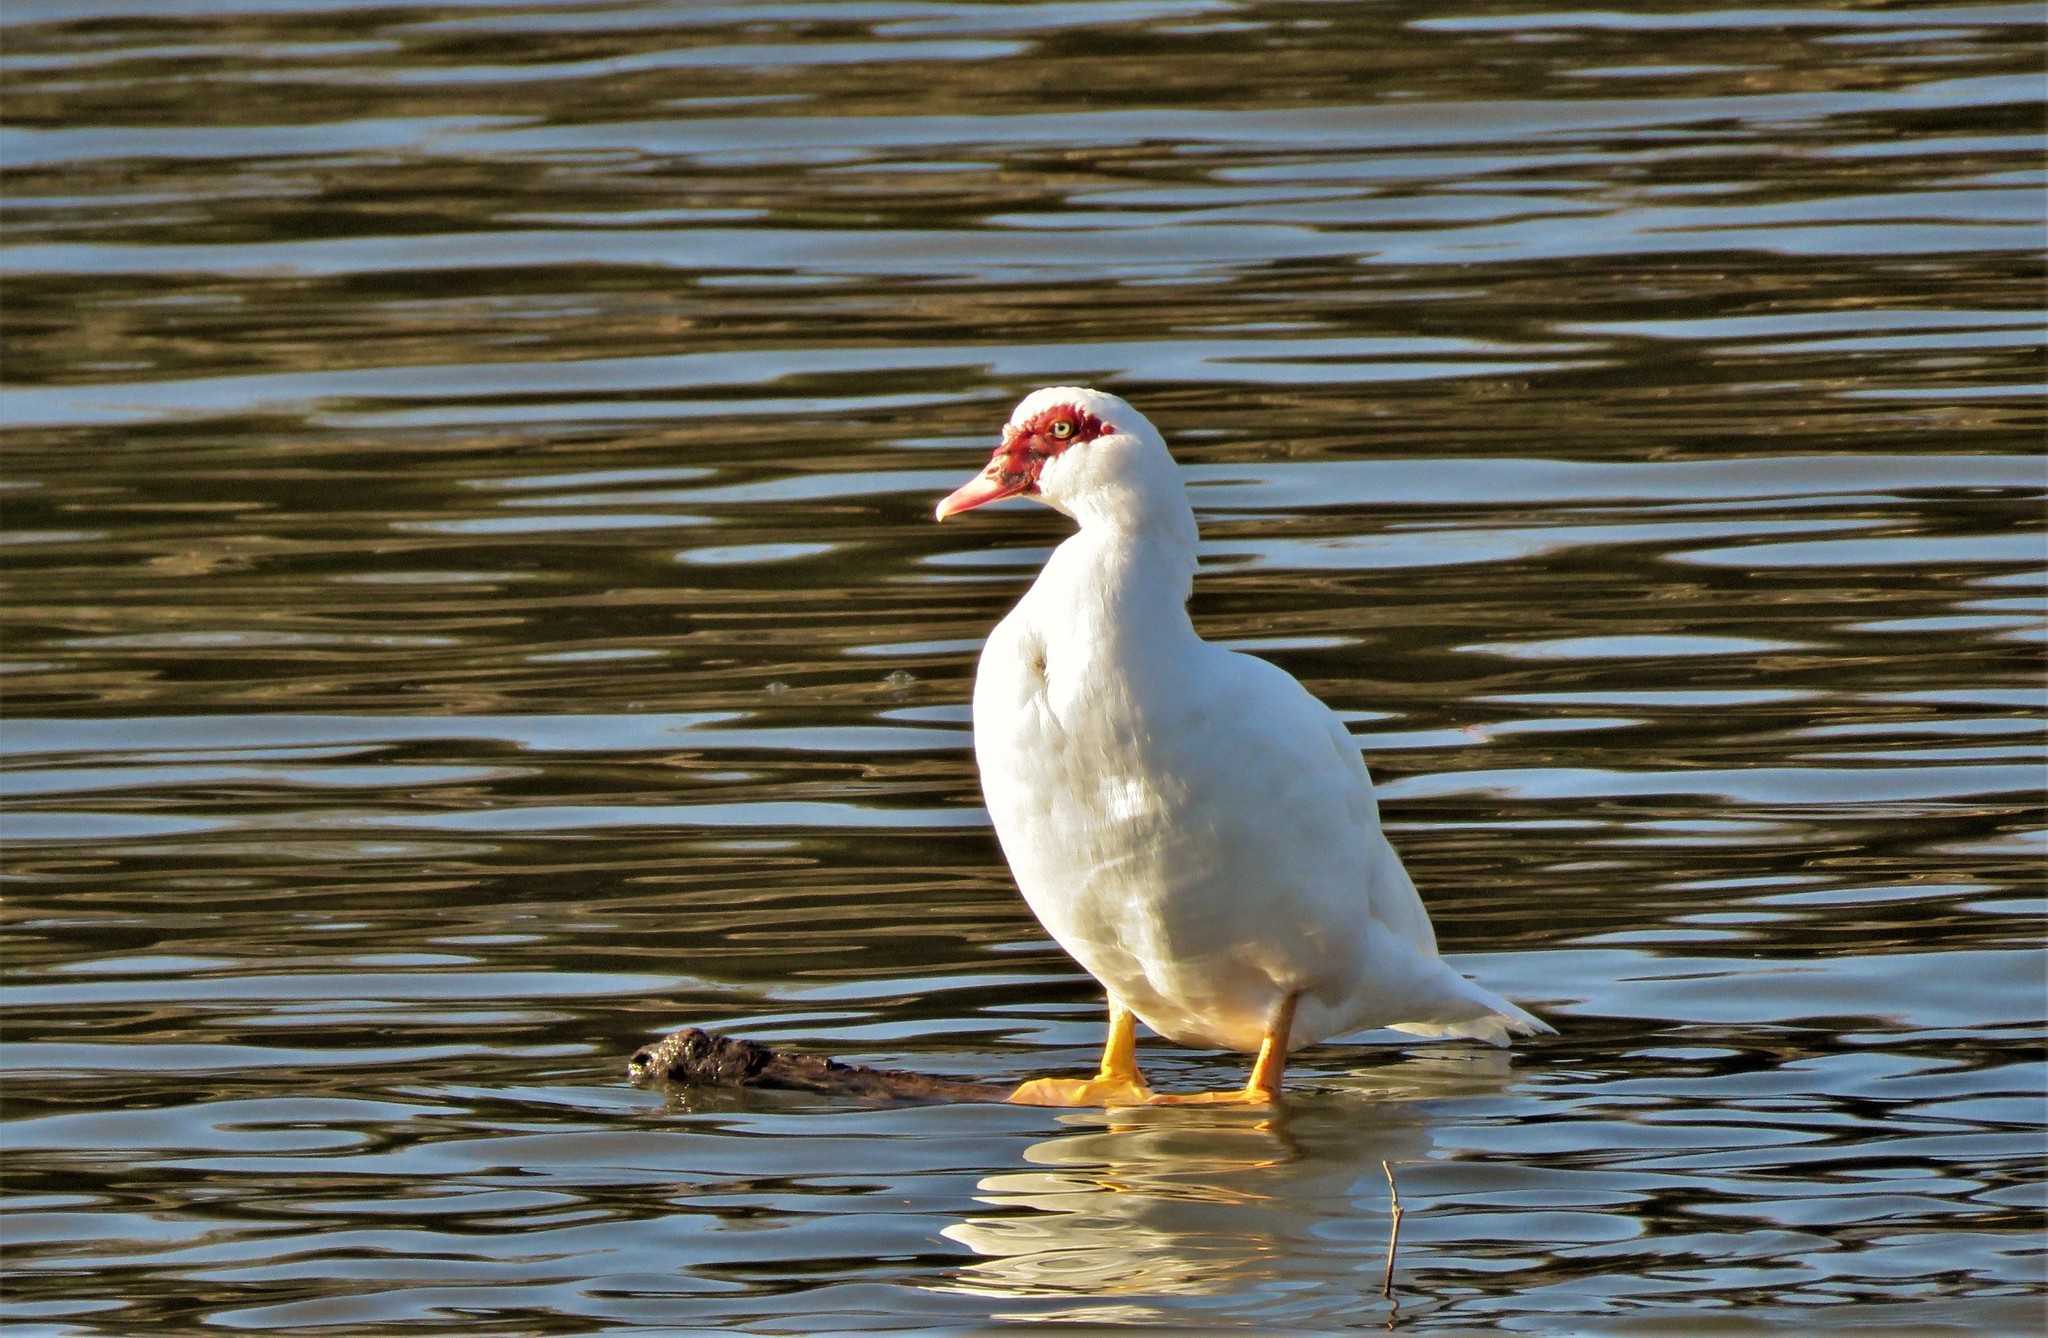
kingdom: Animalia
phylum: Chordata
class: Aves
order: Anseriformes
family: Anatidae
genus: Cairina
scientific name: Cairina moschata
